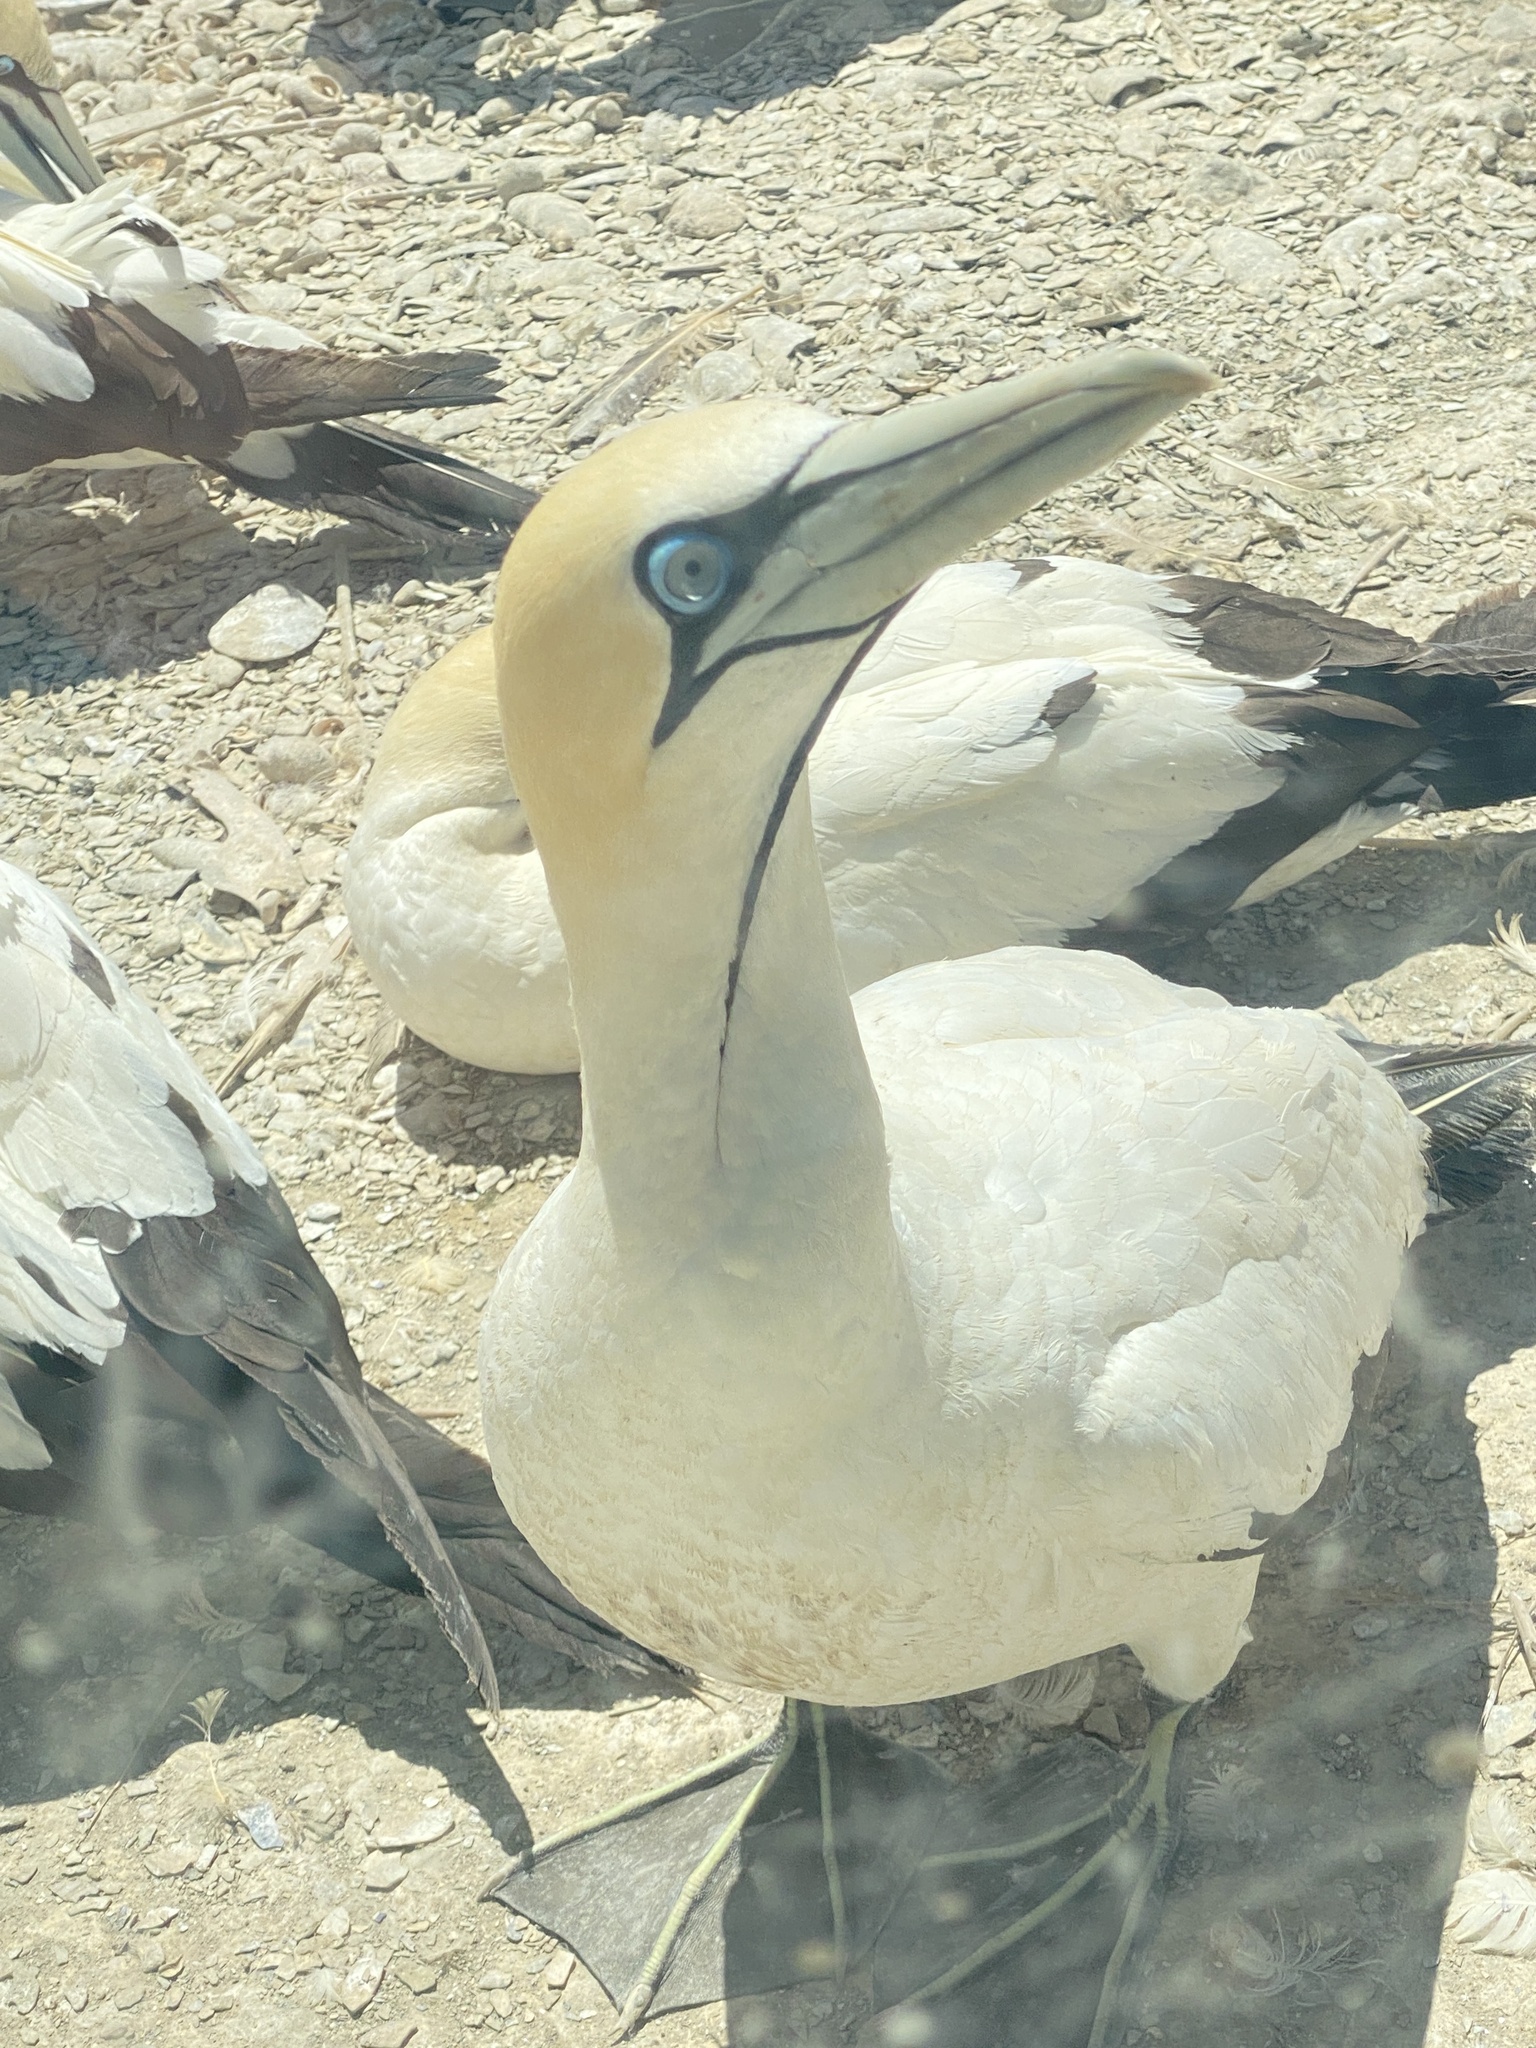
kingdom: Animalia
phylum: Chordata
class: Aves
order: Suliformes
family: Sulidae
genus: Morus
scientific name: Morus capensis
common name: Cape gannet
